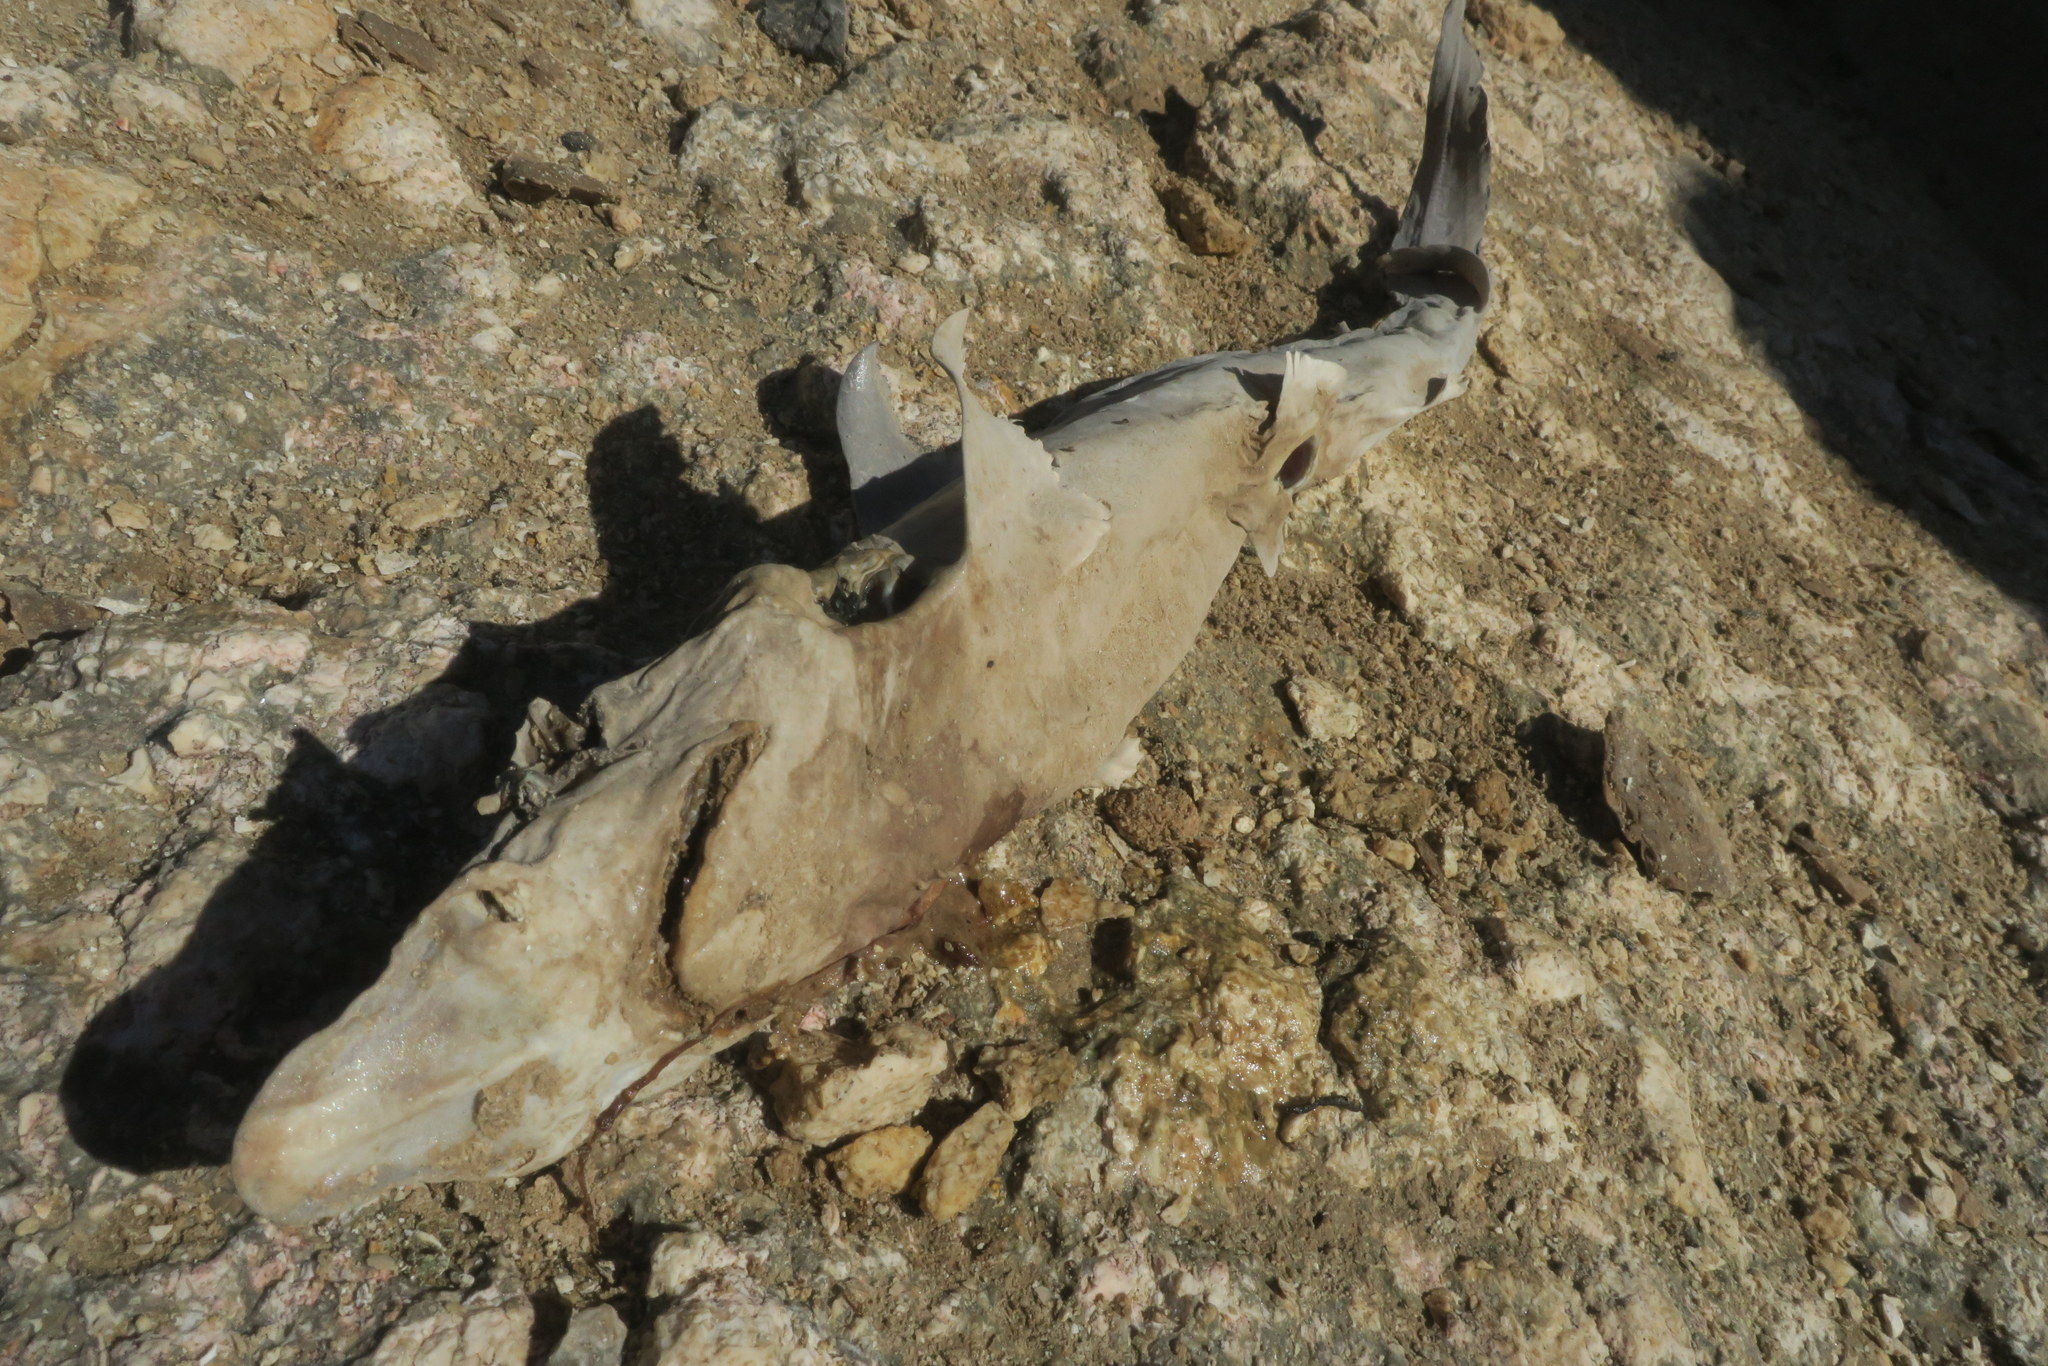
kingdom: Animalia
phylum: Chordata
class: Elasmobranchii
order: Carcharhiniformes
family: Carcharhinidae
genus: Carcharhinus
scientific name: Carcharhinus macloti
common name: Hardnose shark
